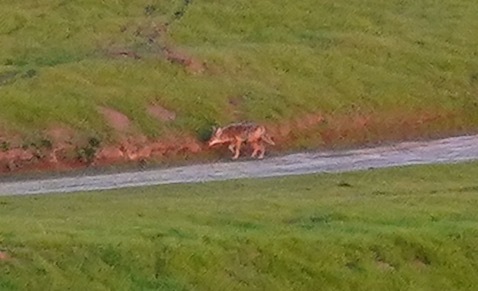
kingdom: Animalia
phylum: Chordata
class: Mammalia
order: Carnivora
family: Canidae
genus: Canis
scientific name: Canis latrans
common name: Coyote
